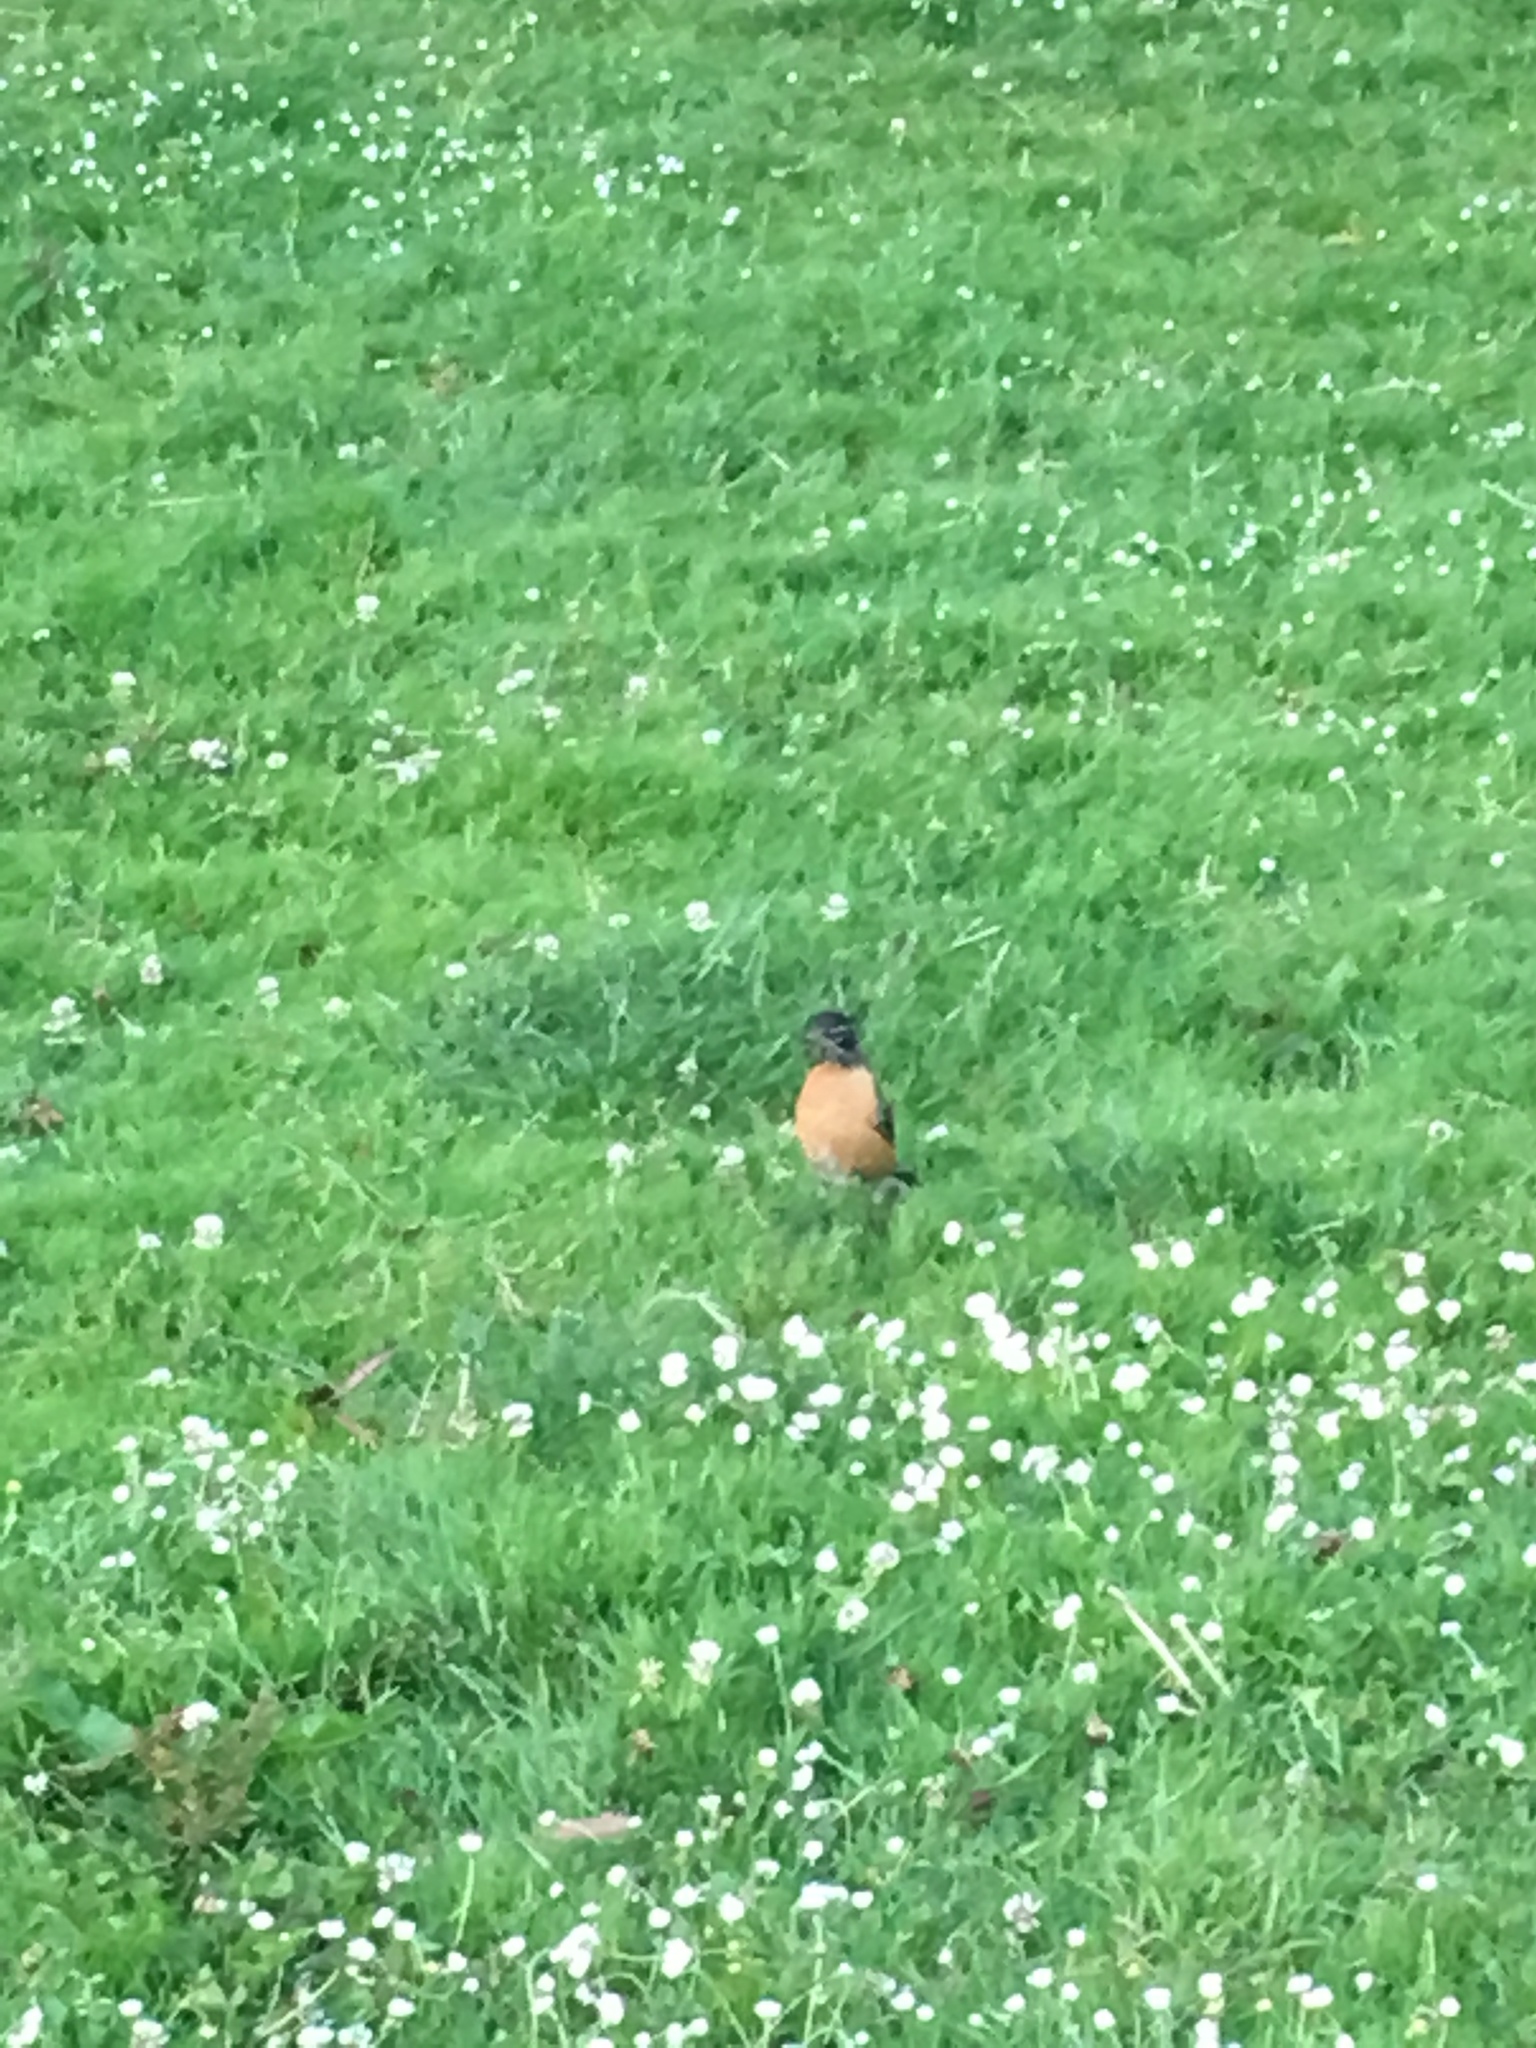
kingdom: Animalia
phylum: Chordata
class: Aves
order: Passeriformes
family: Turdidae
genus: Turdus
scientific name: Turdus migratorius
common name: American robin
